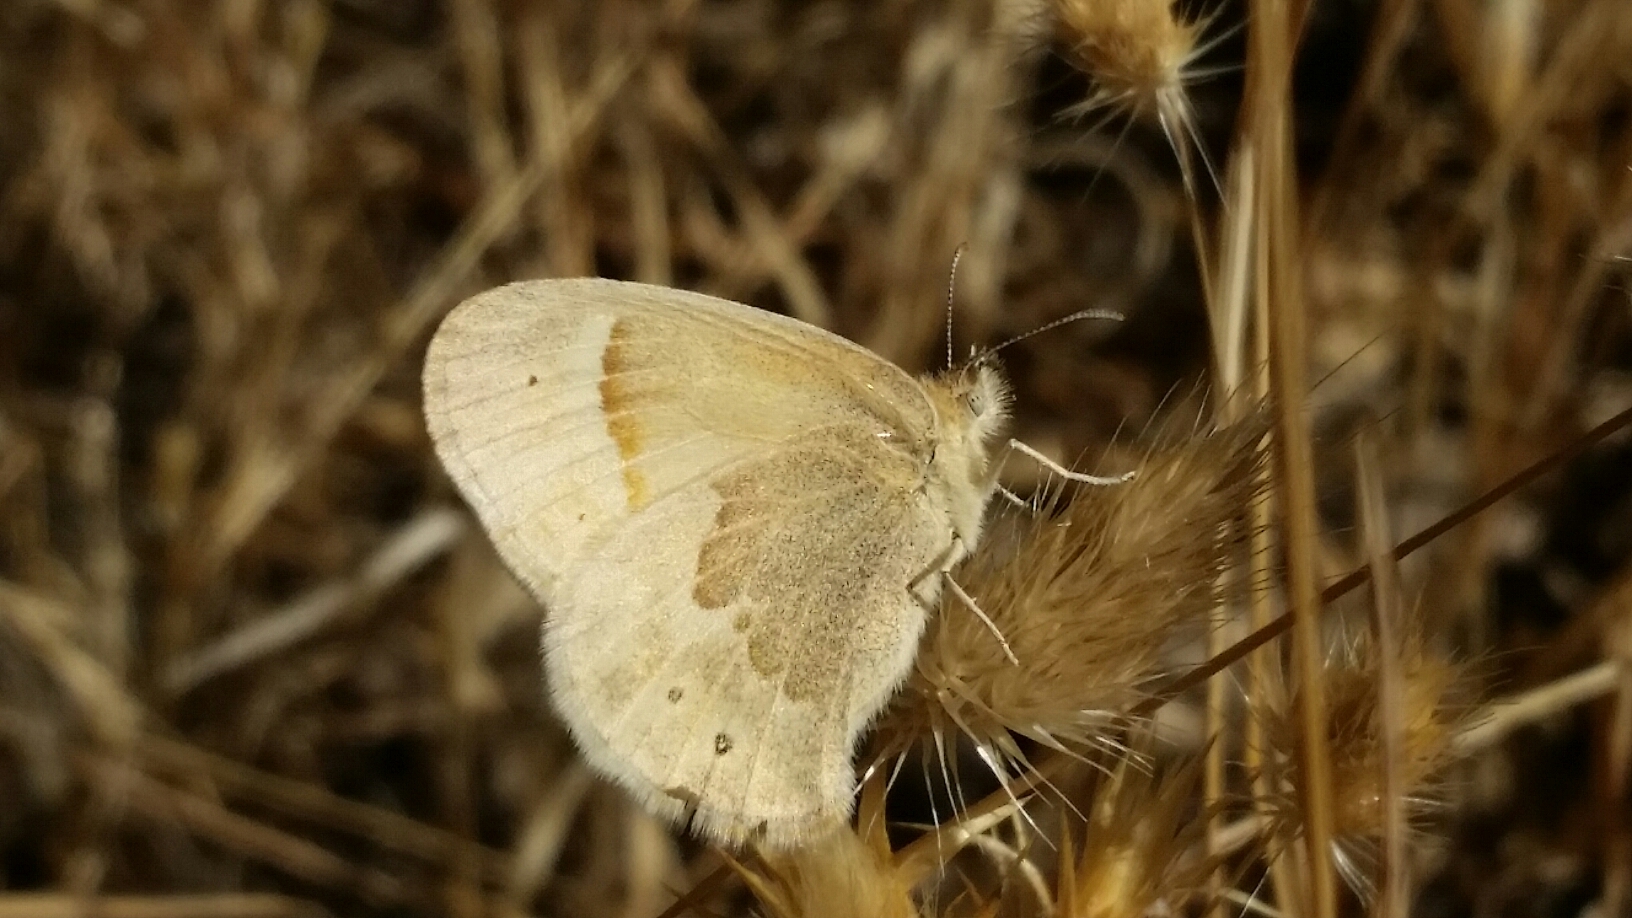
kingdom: Animalia
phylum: Arthropoda
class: Insecta
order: Lepidoptera
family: Nymphalidae
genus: Coenonympha
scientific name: Coenonympha california
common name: Common ringlet
